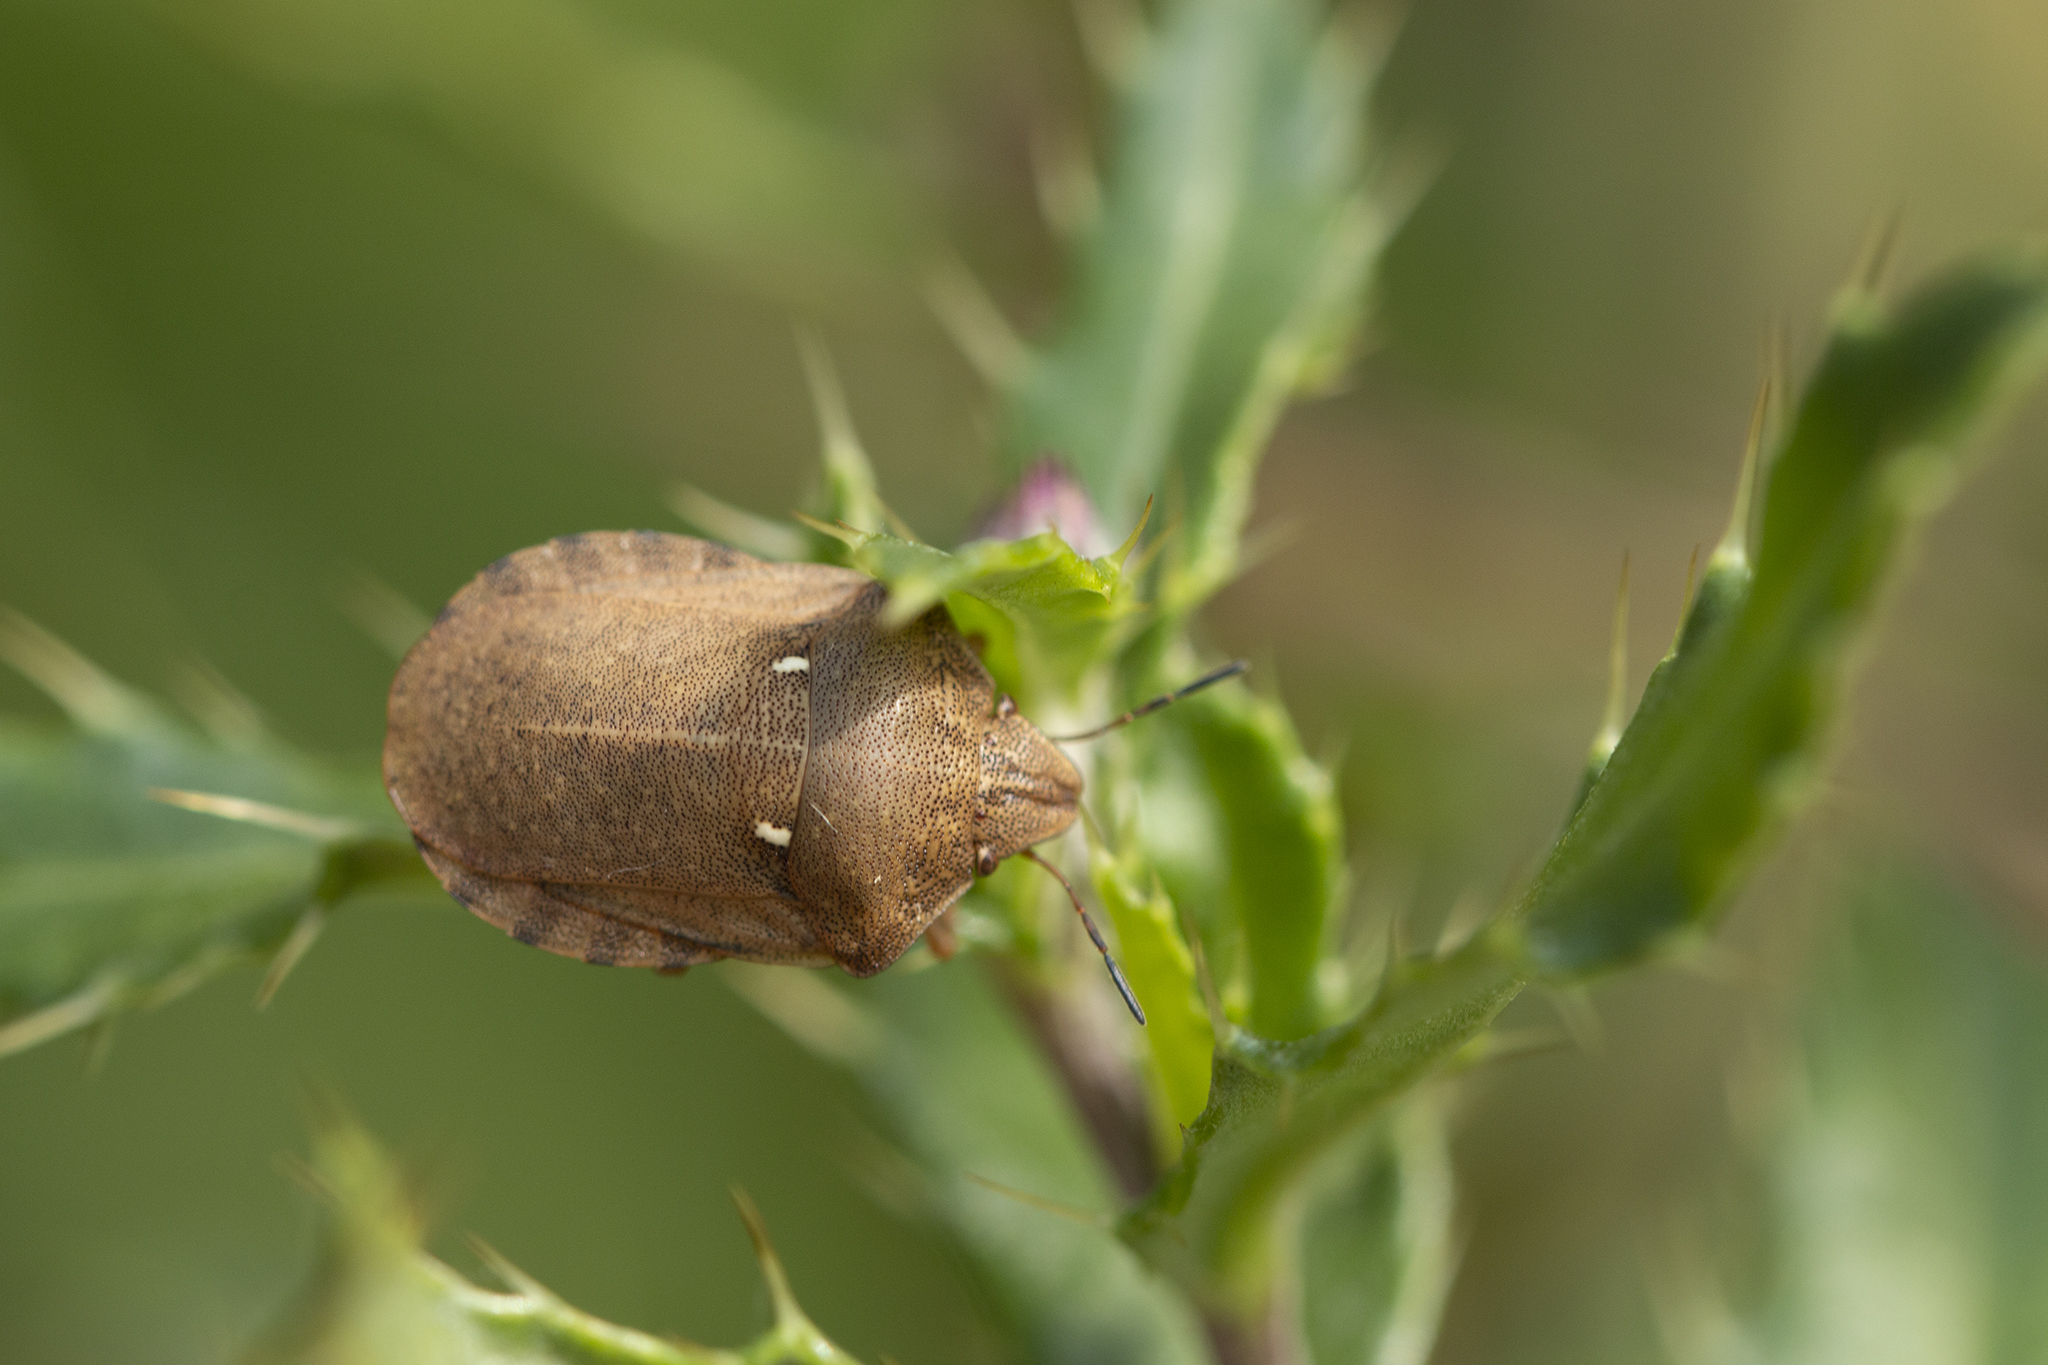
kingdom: Animalia
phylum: Arthropoda
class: Insecta
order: Hemiptera
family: Scutelleridae
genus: Eurygaster
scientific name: Eurygaster testudinaria
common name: Tortoise bug
